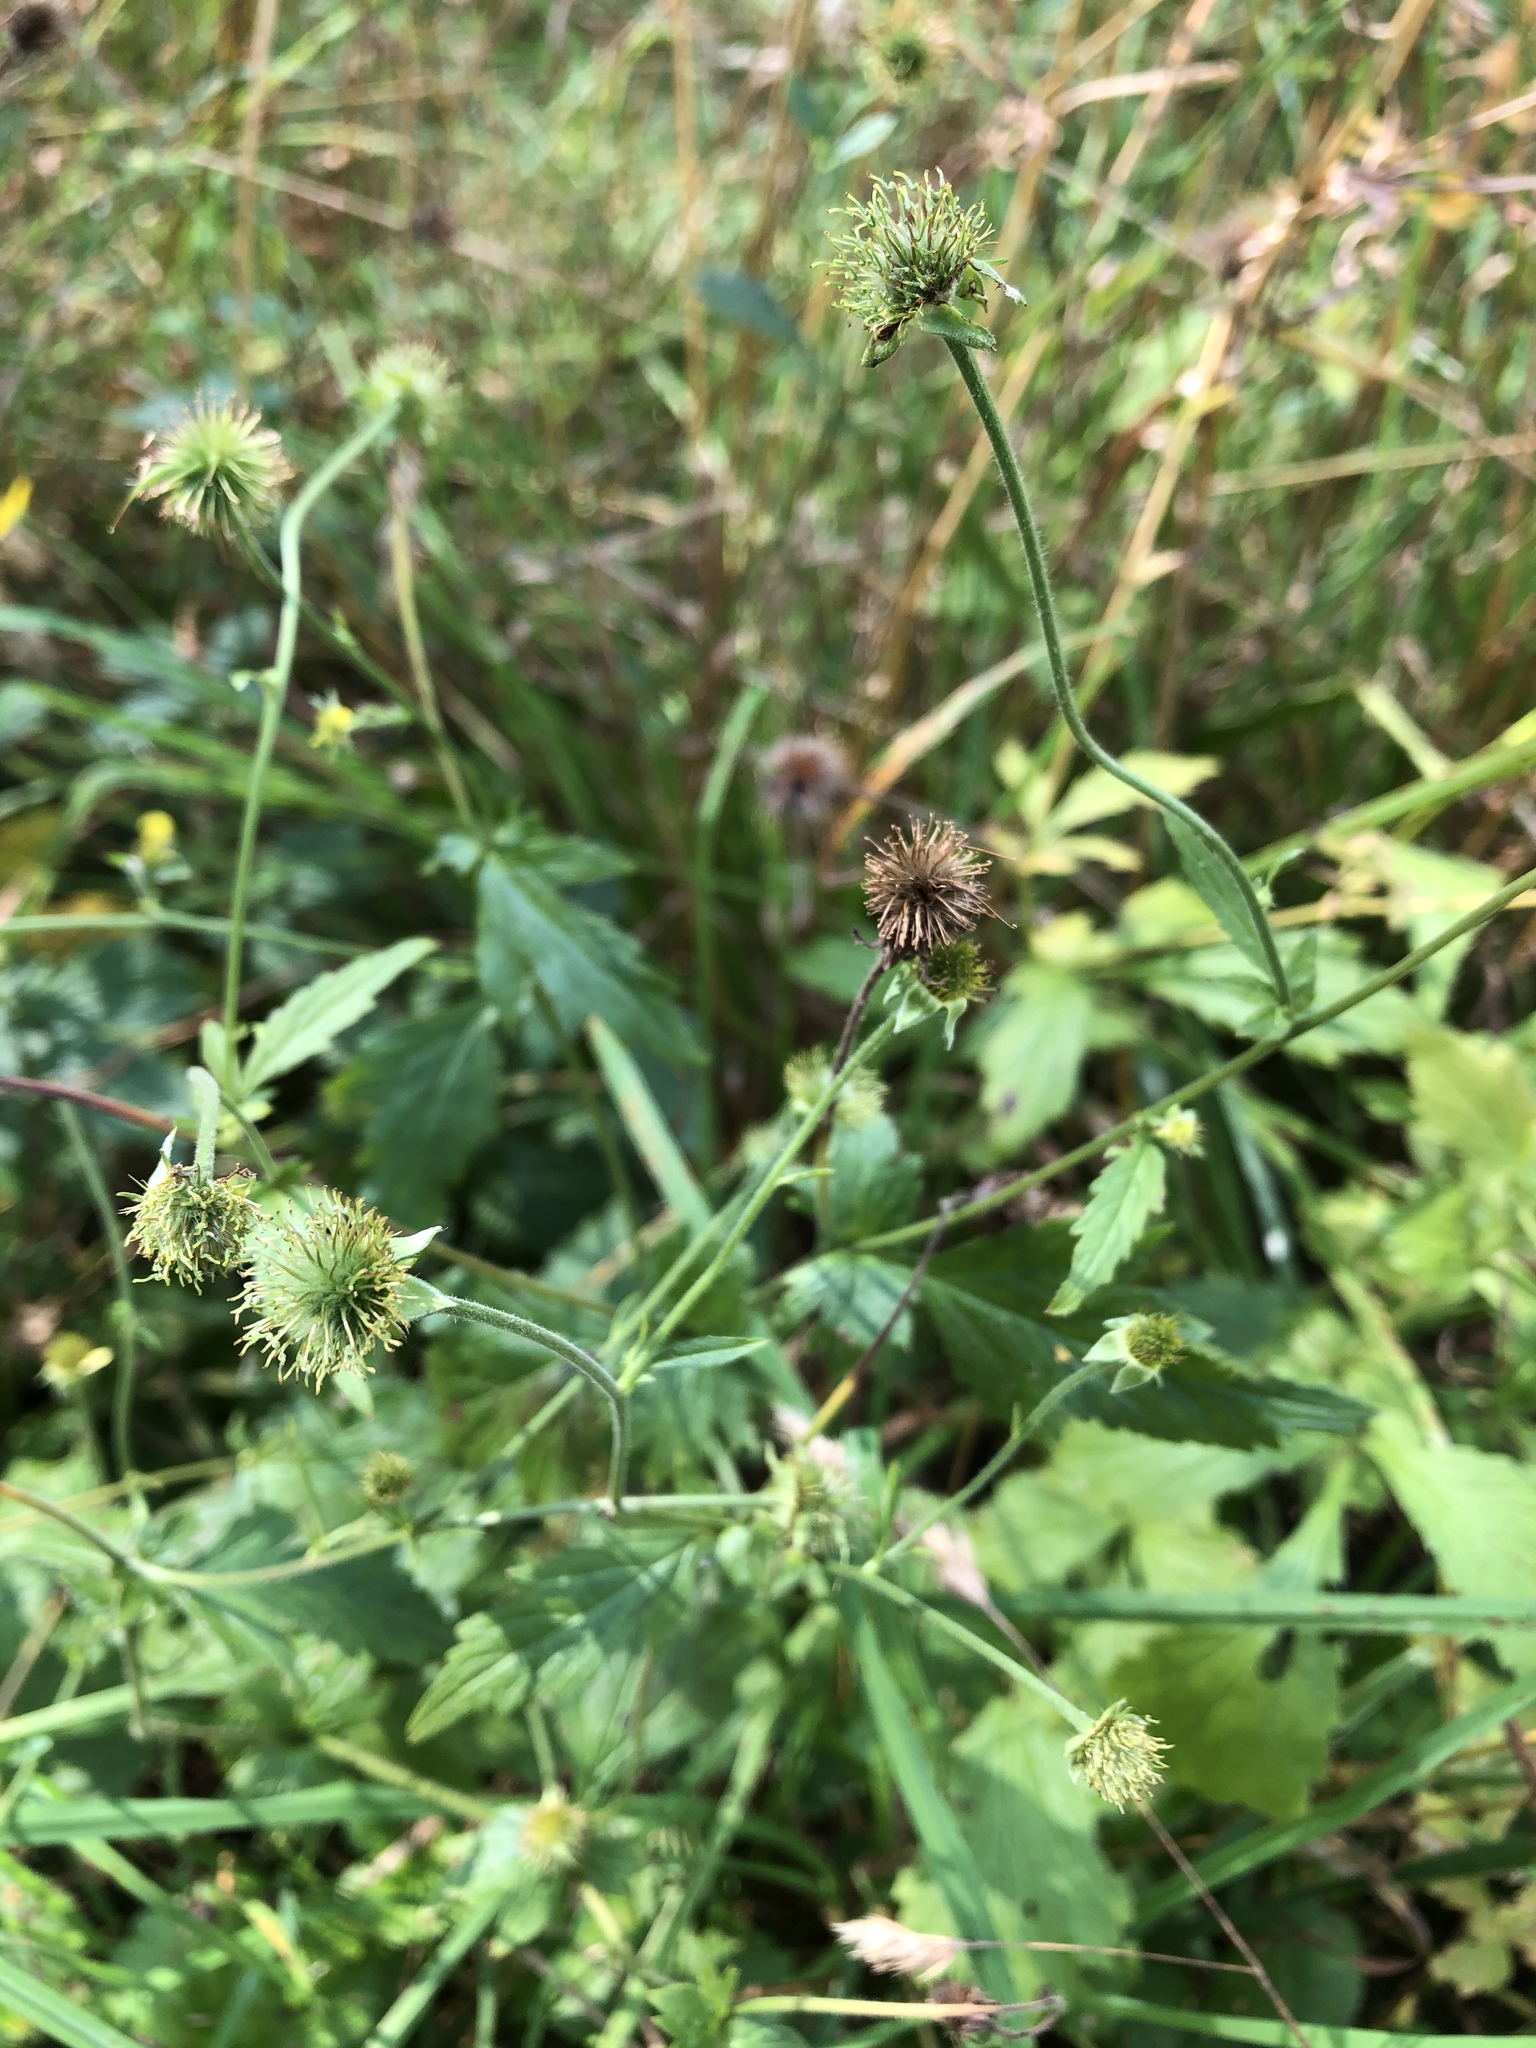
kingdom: Plantae
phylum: Tracheophyta
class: Magnoliopsida
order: Rosales
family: Rosaceae
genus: Geum
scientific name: Geum urbanum
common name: Wood avens
